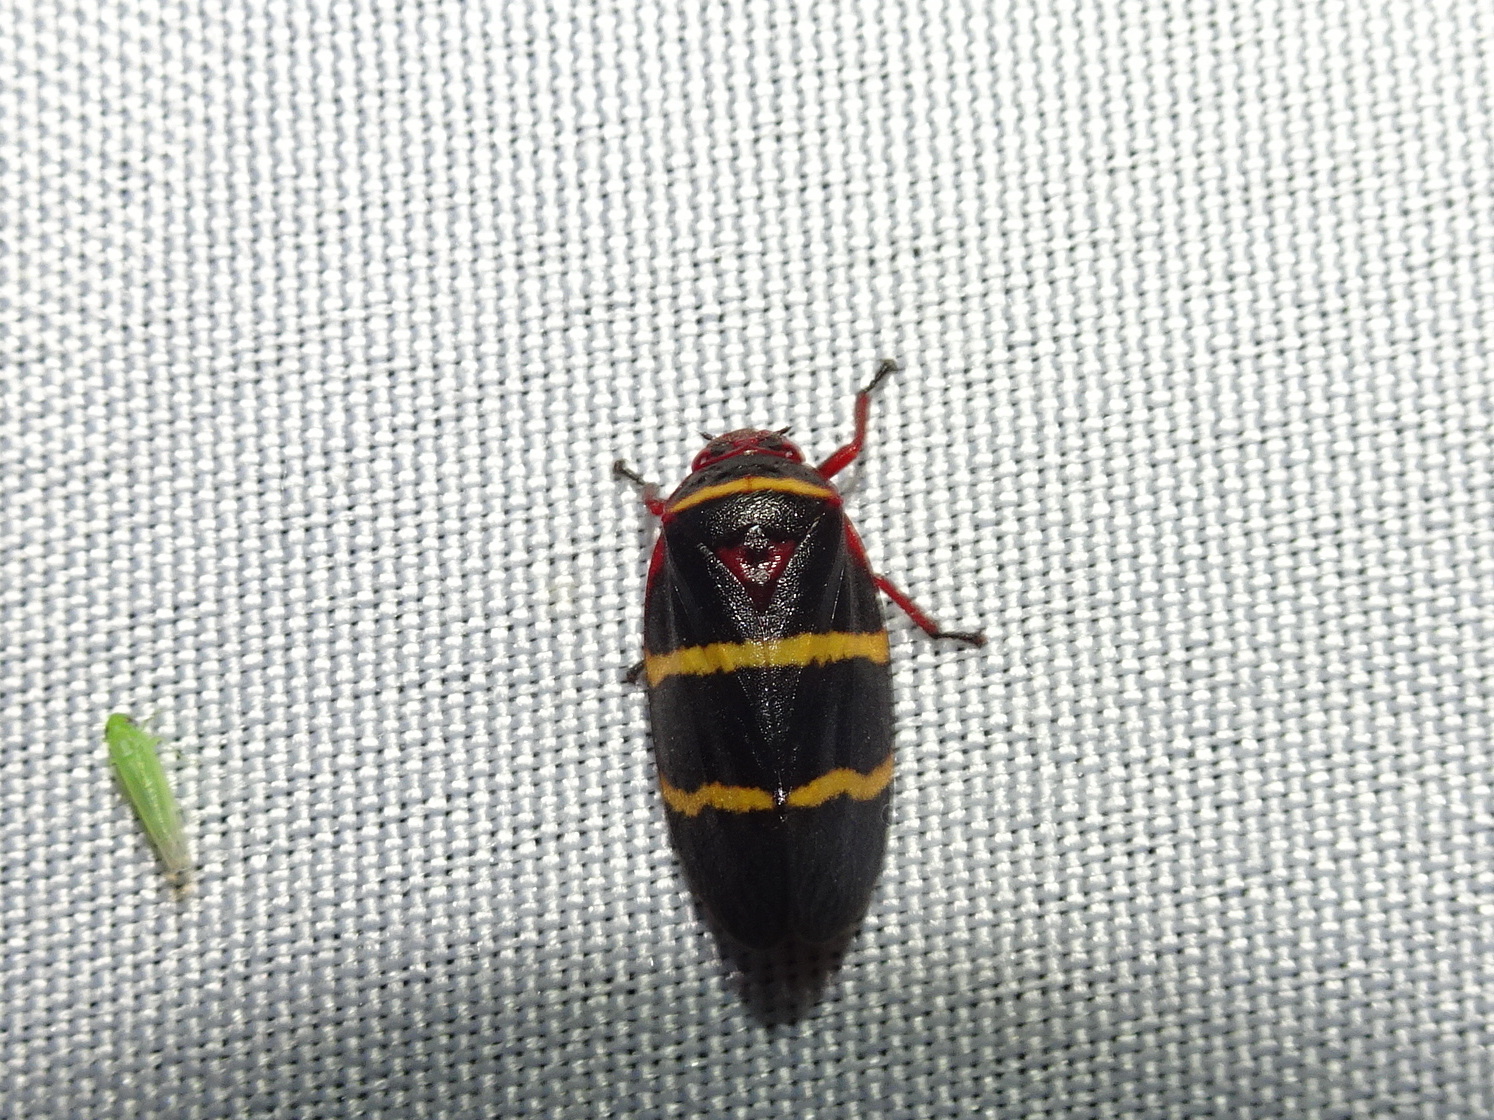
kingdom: Animalia
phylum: Arthropoda
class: Insecta
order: Hemiptera
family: Cercopidae
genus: Prosapia
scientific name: Prosapia bicincta
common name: Twolined spittlebug
